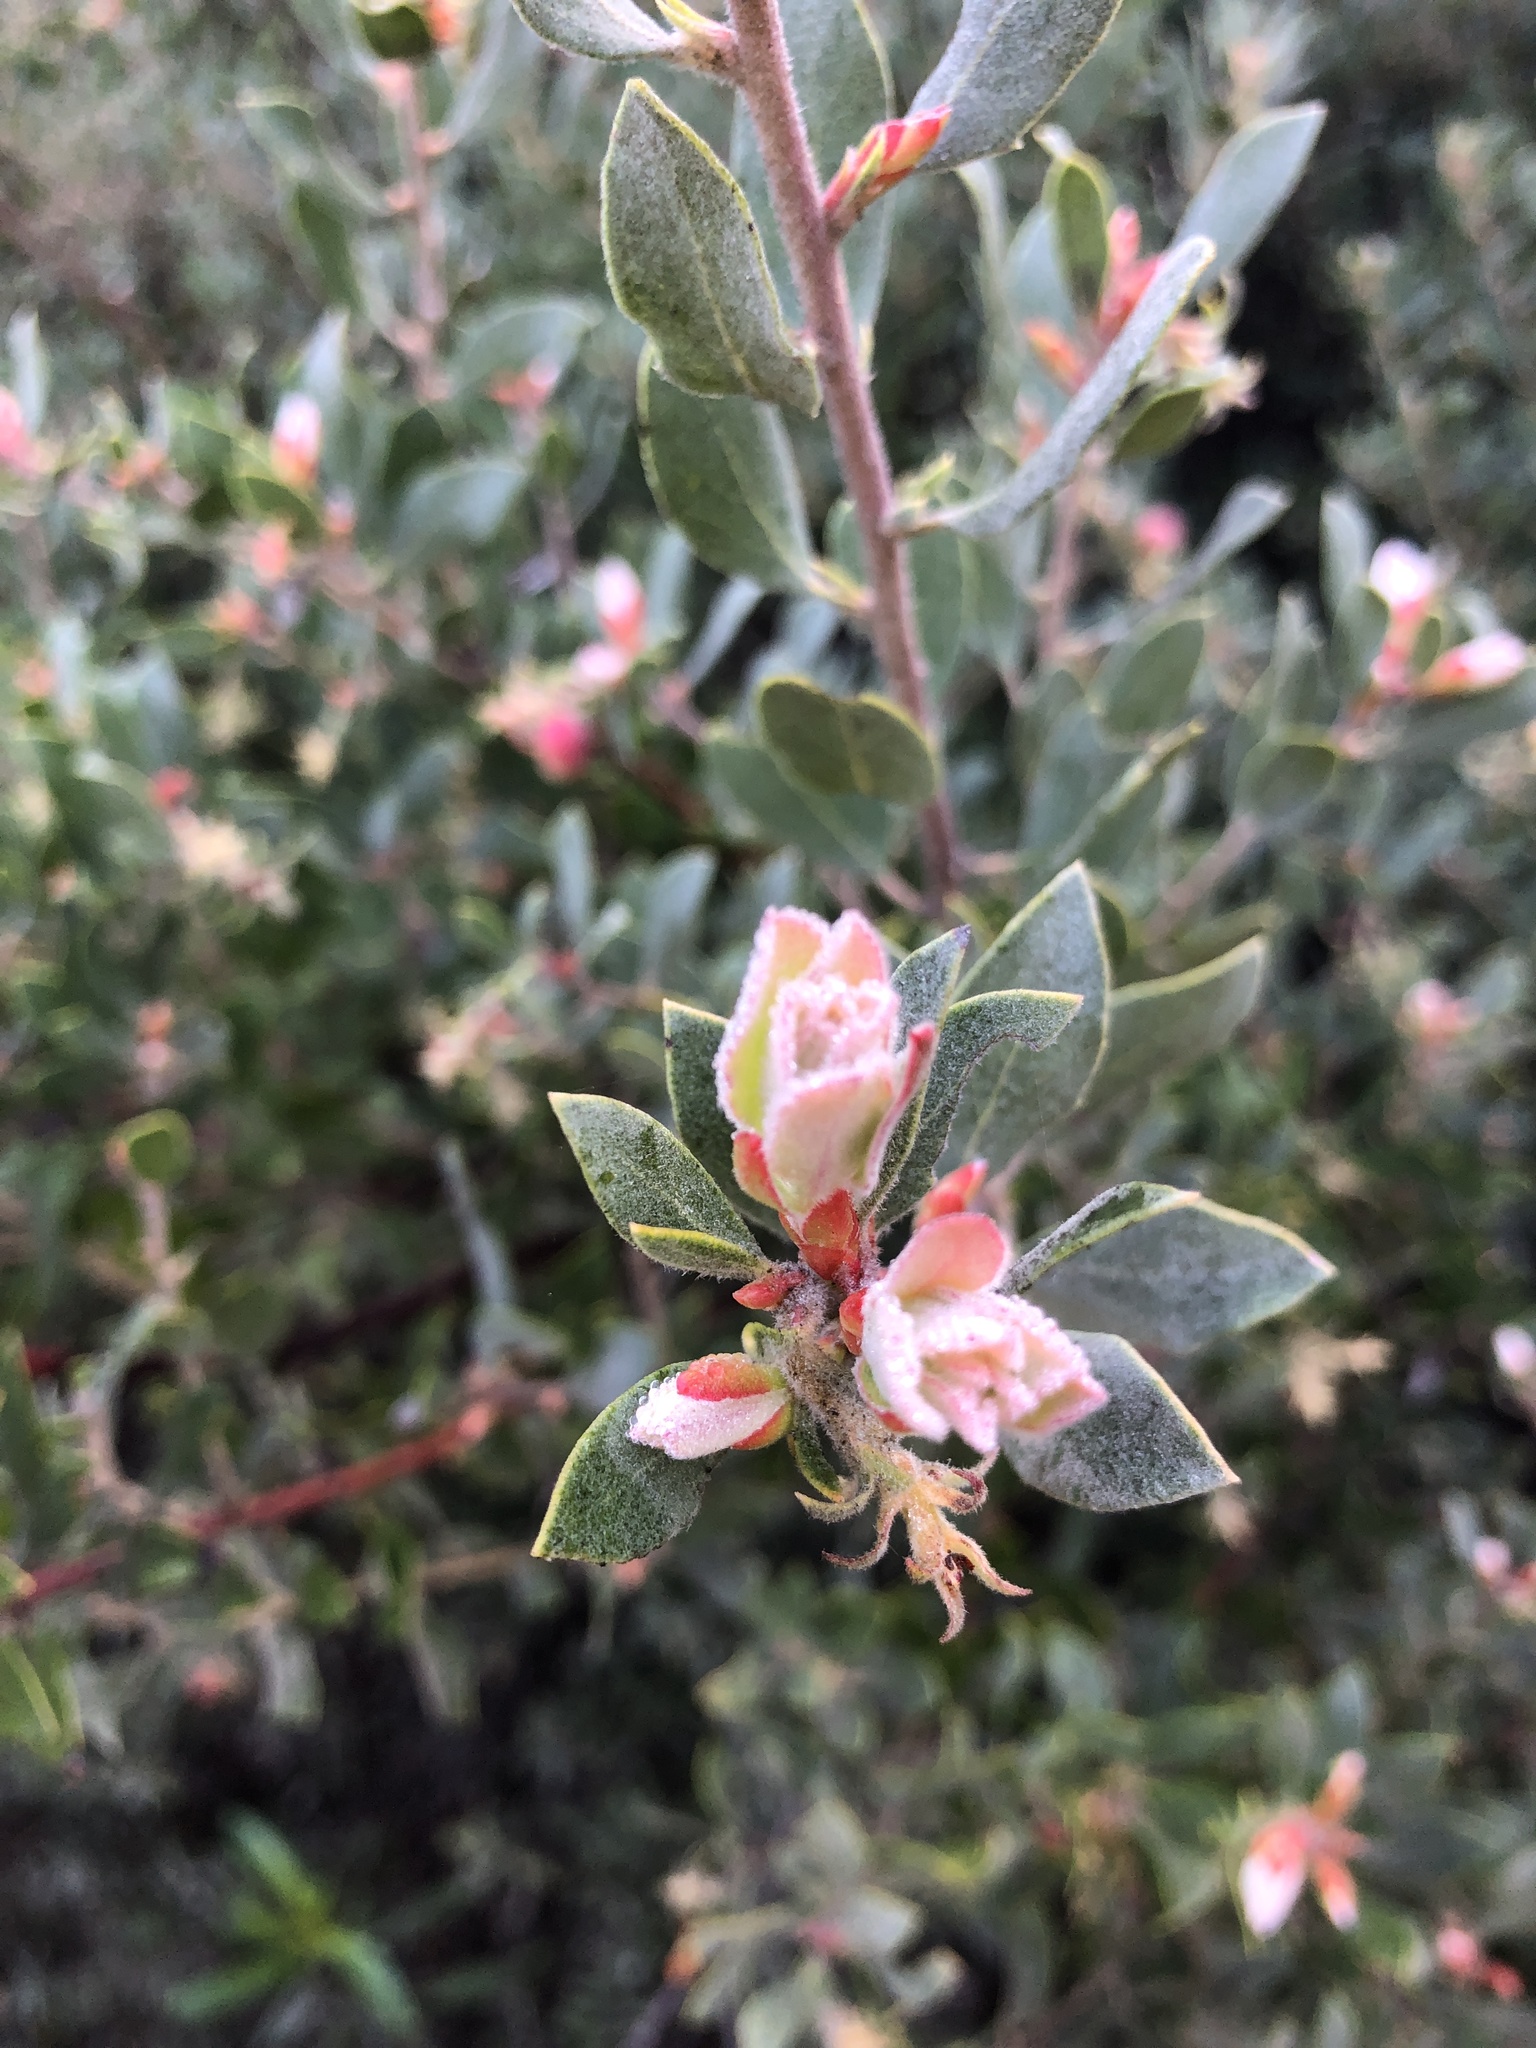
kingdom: Plantae
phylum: Tracheophyta
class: Magnoliopsida
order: Ericales
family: Ericaceae
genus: Arctostaphylos
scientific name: Arctostaphylos silvicola
